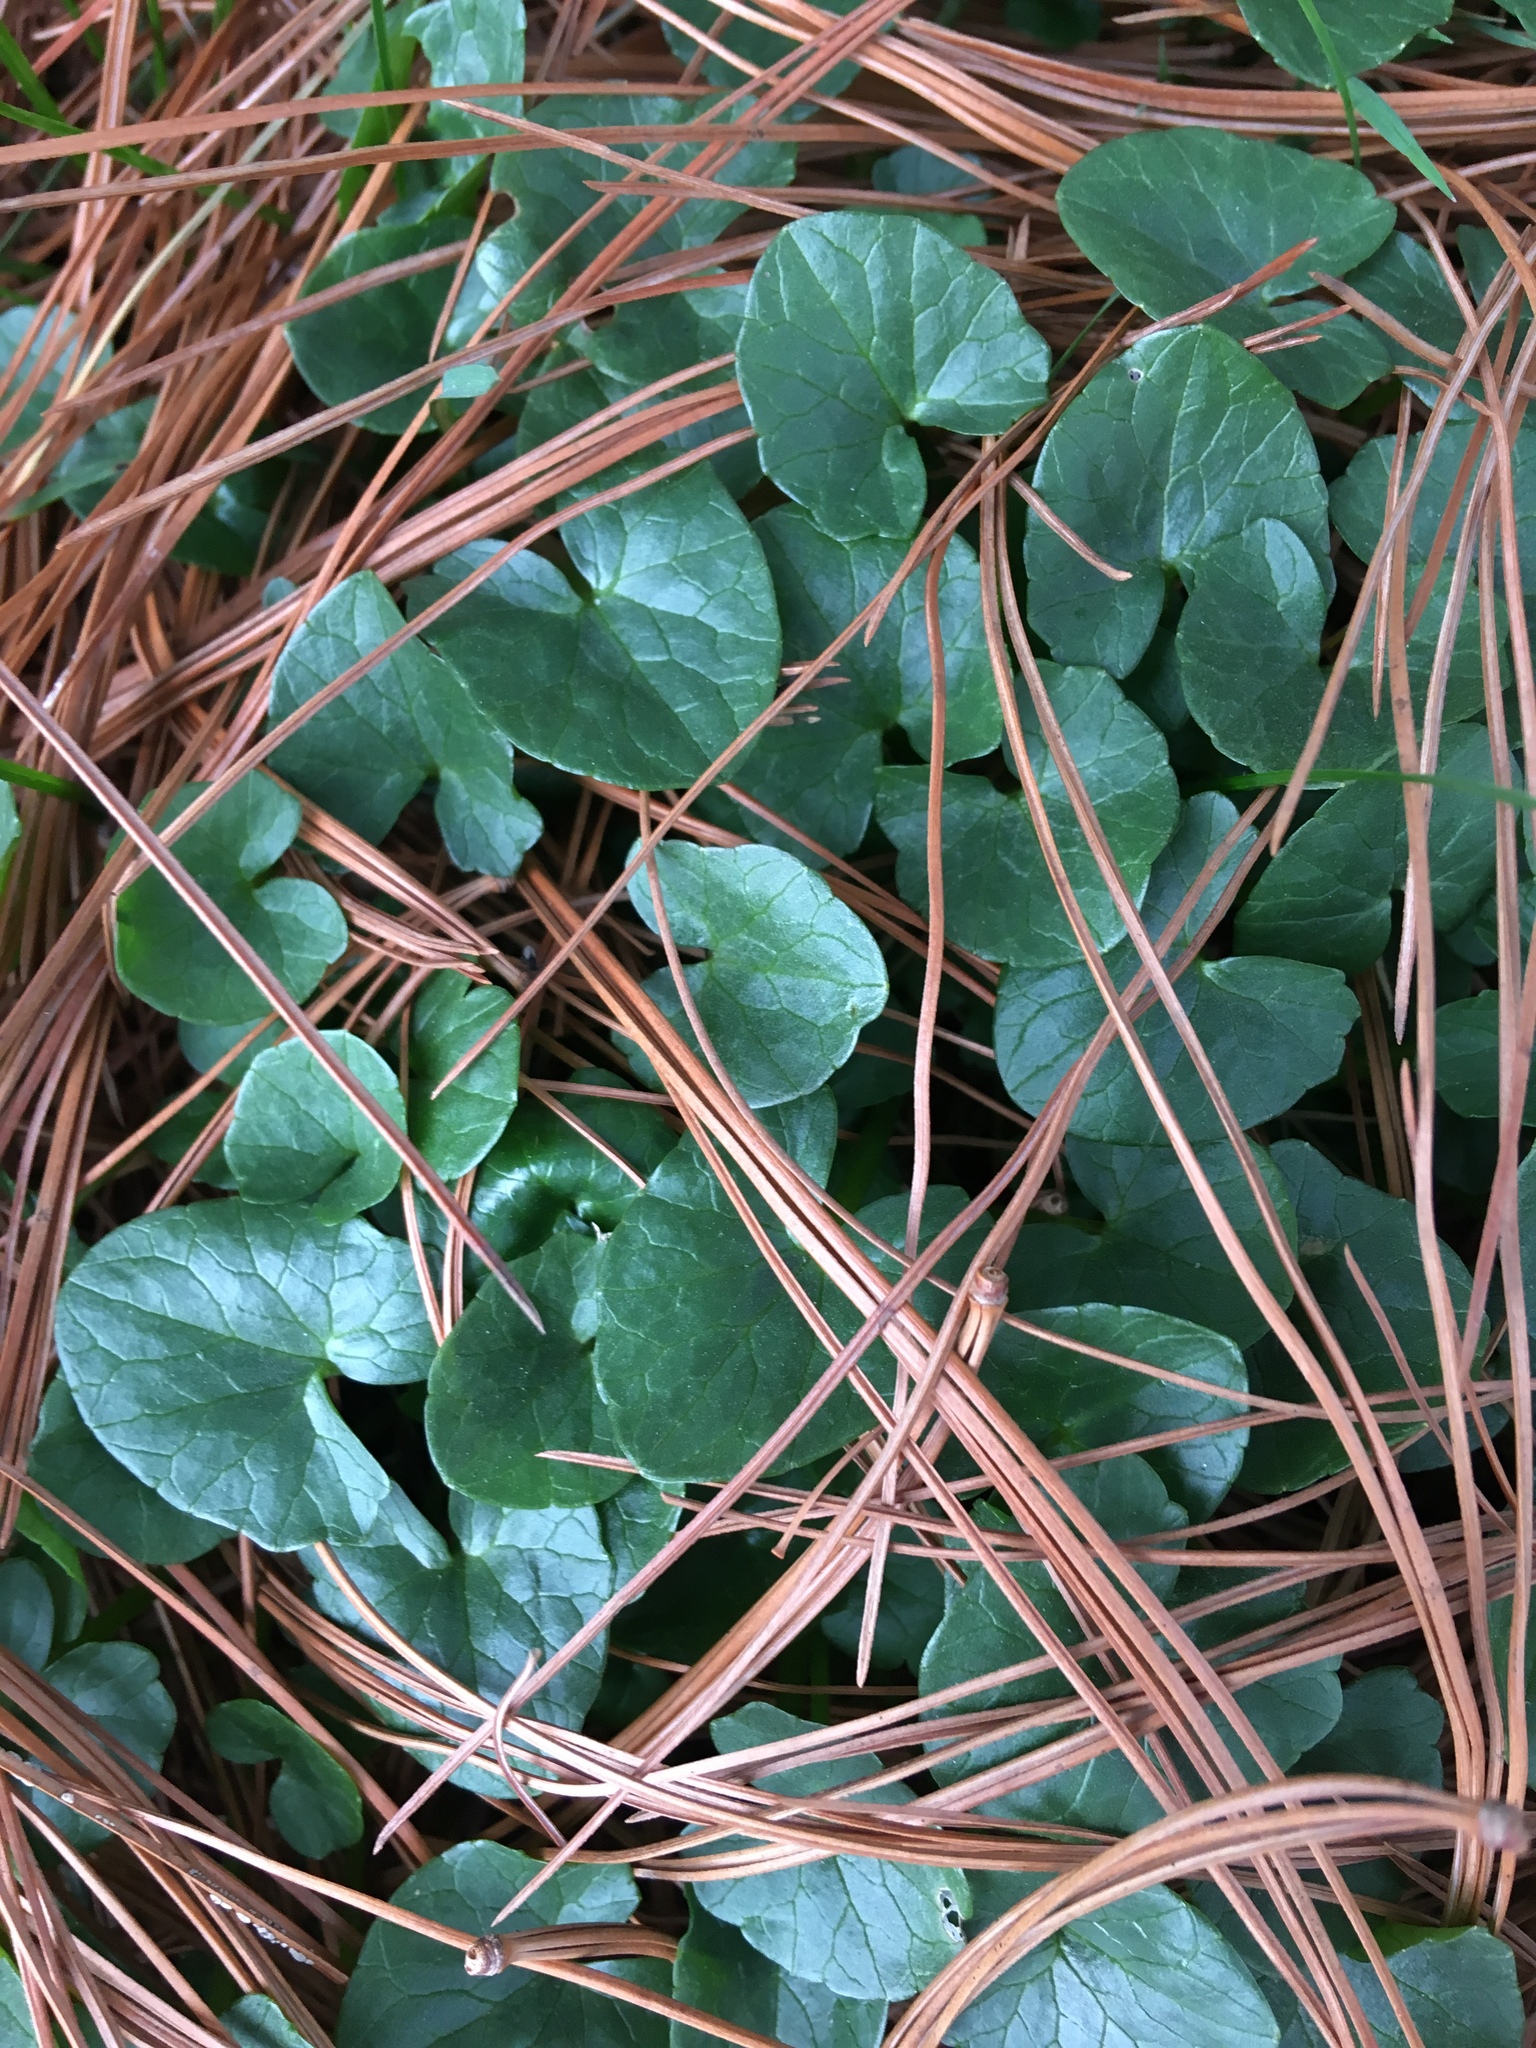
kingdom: Plantae
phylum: Tracheophyta
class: Magnoliopsida
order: Ranunculales
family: Ranunculaceae
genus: Ficaria
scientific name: Ficaria verna
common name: Lesser celandine
